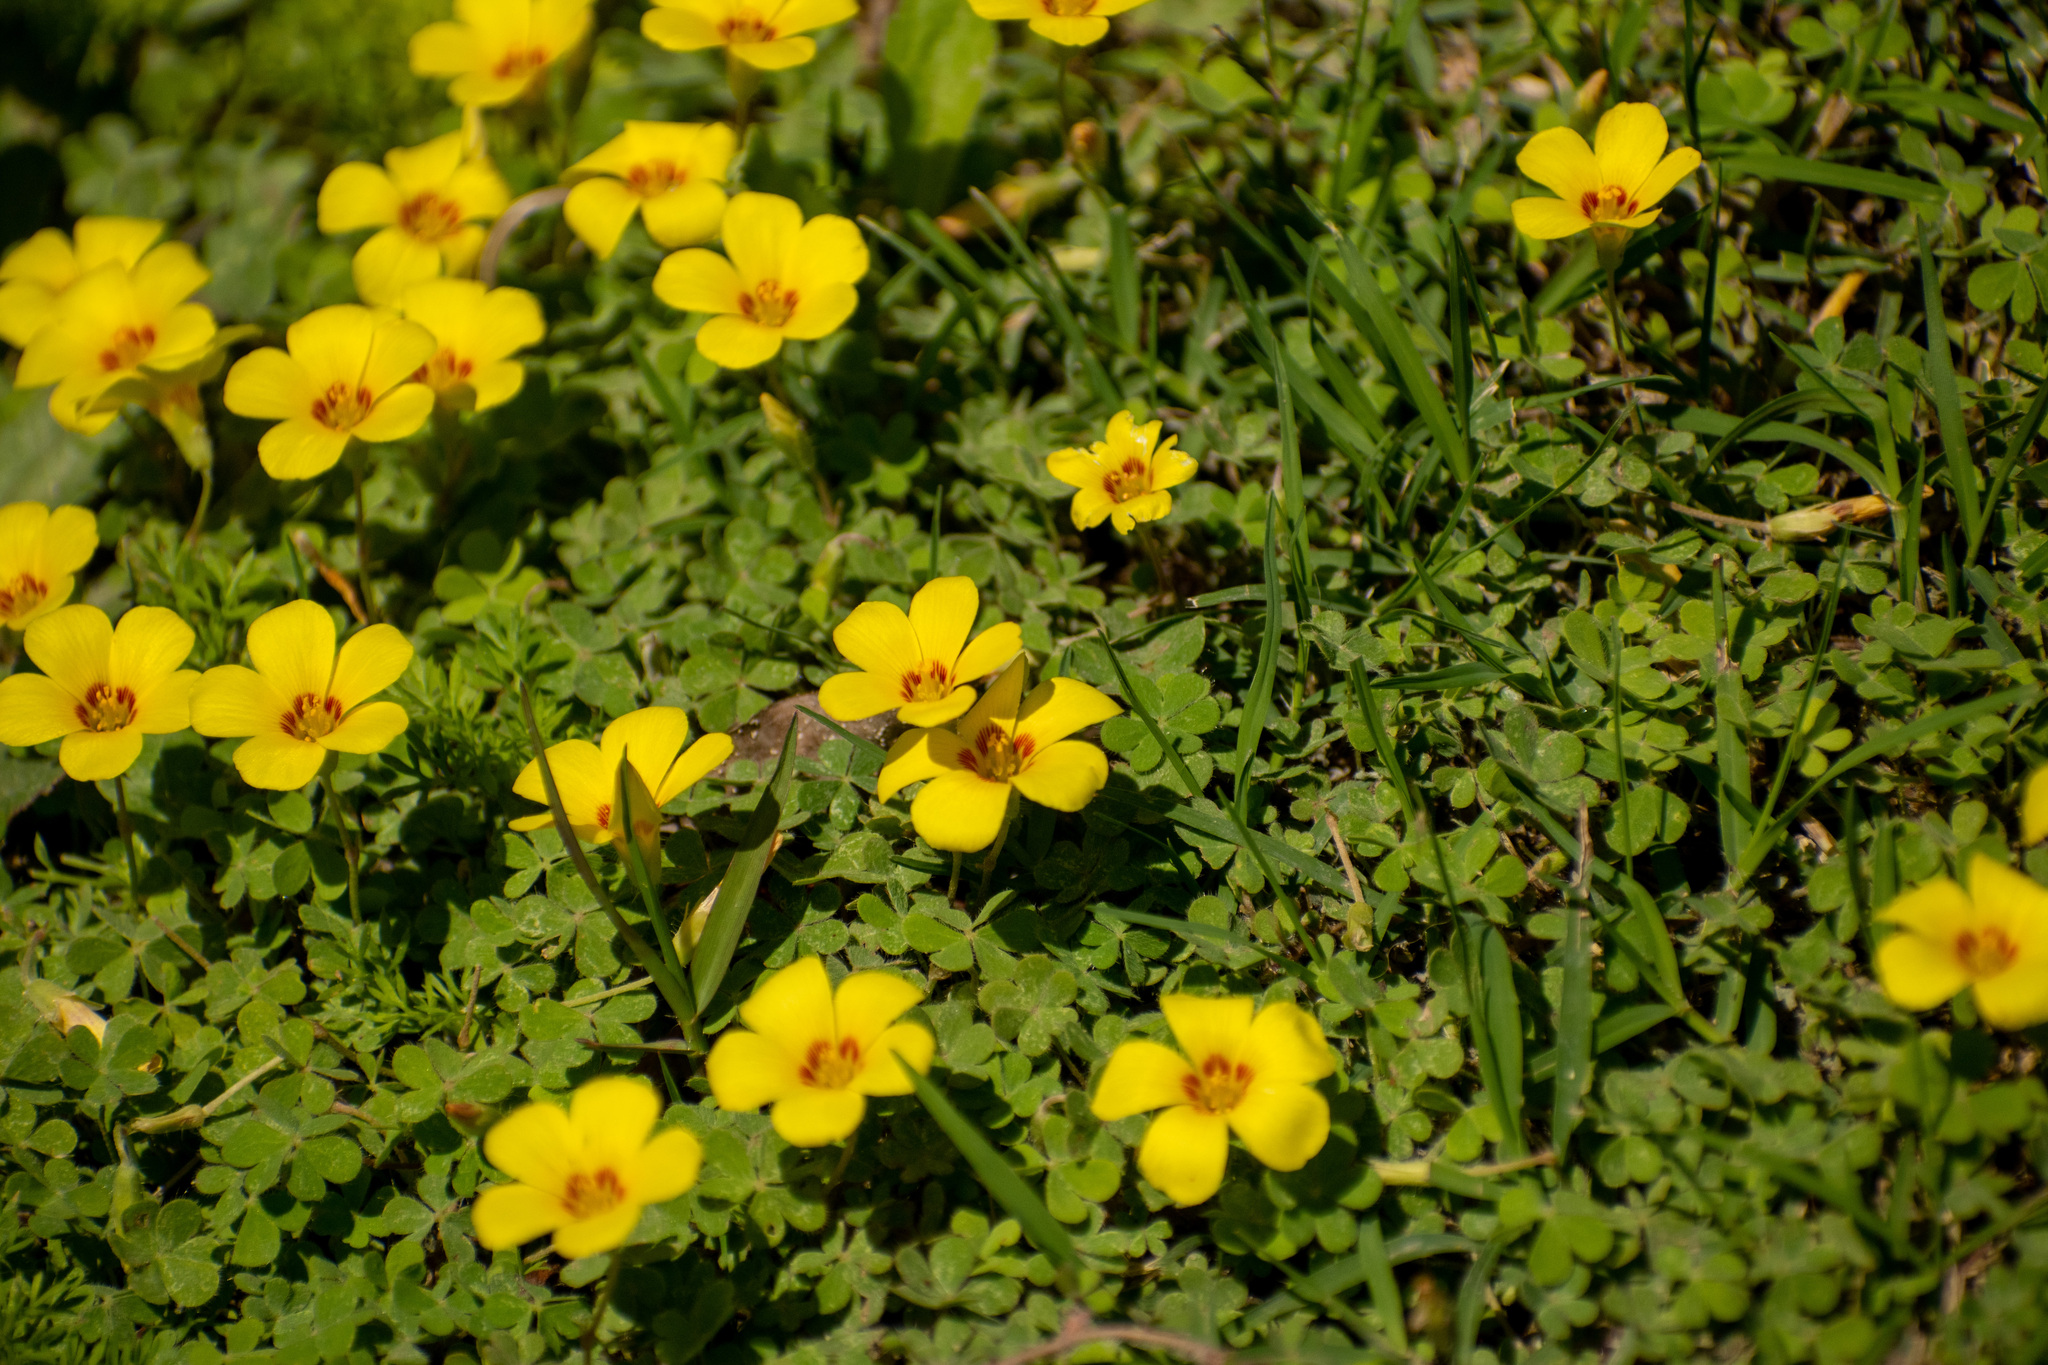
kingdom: Plantae
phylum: Tracheophyta
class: Magnoliopsida
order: Oxalidales
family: Oxalidaceae
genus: Oxalis
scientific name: Oxalis conorrhiza
